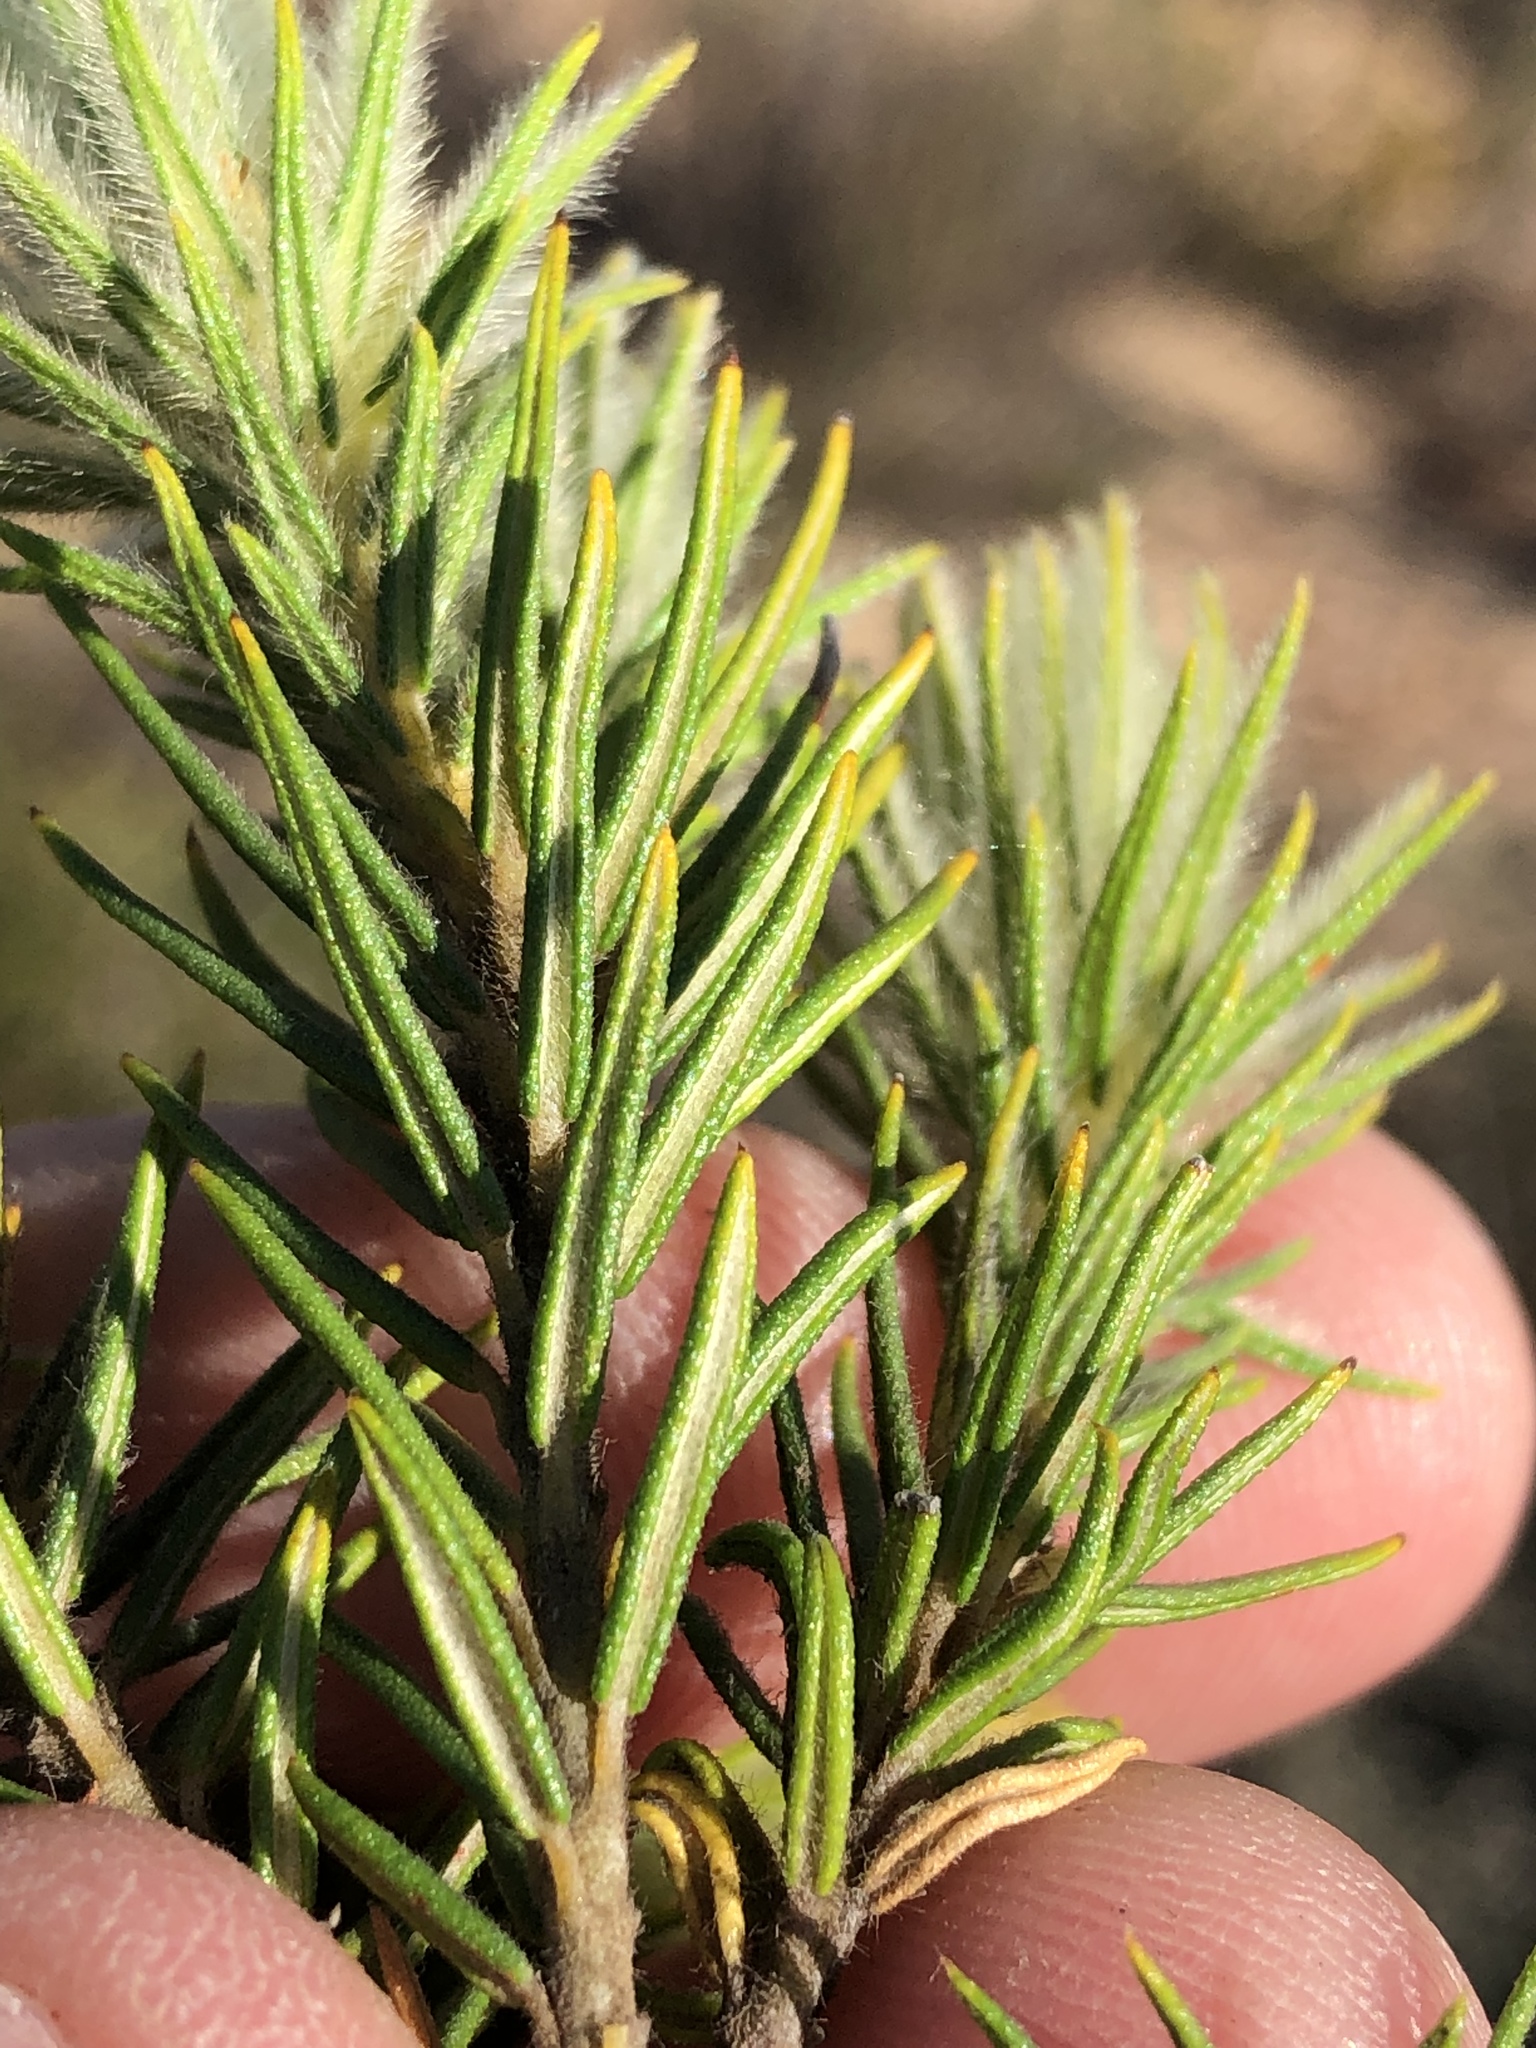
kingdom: Plantae
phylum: Tracheophyta
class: Magnoliopsida
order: Rosales
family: Rhamnaceae
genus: Phylica
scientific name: Phylica plumosa
